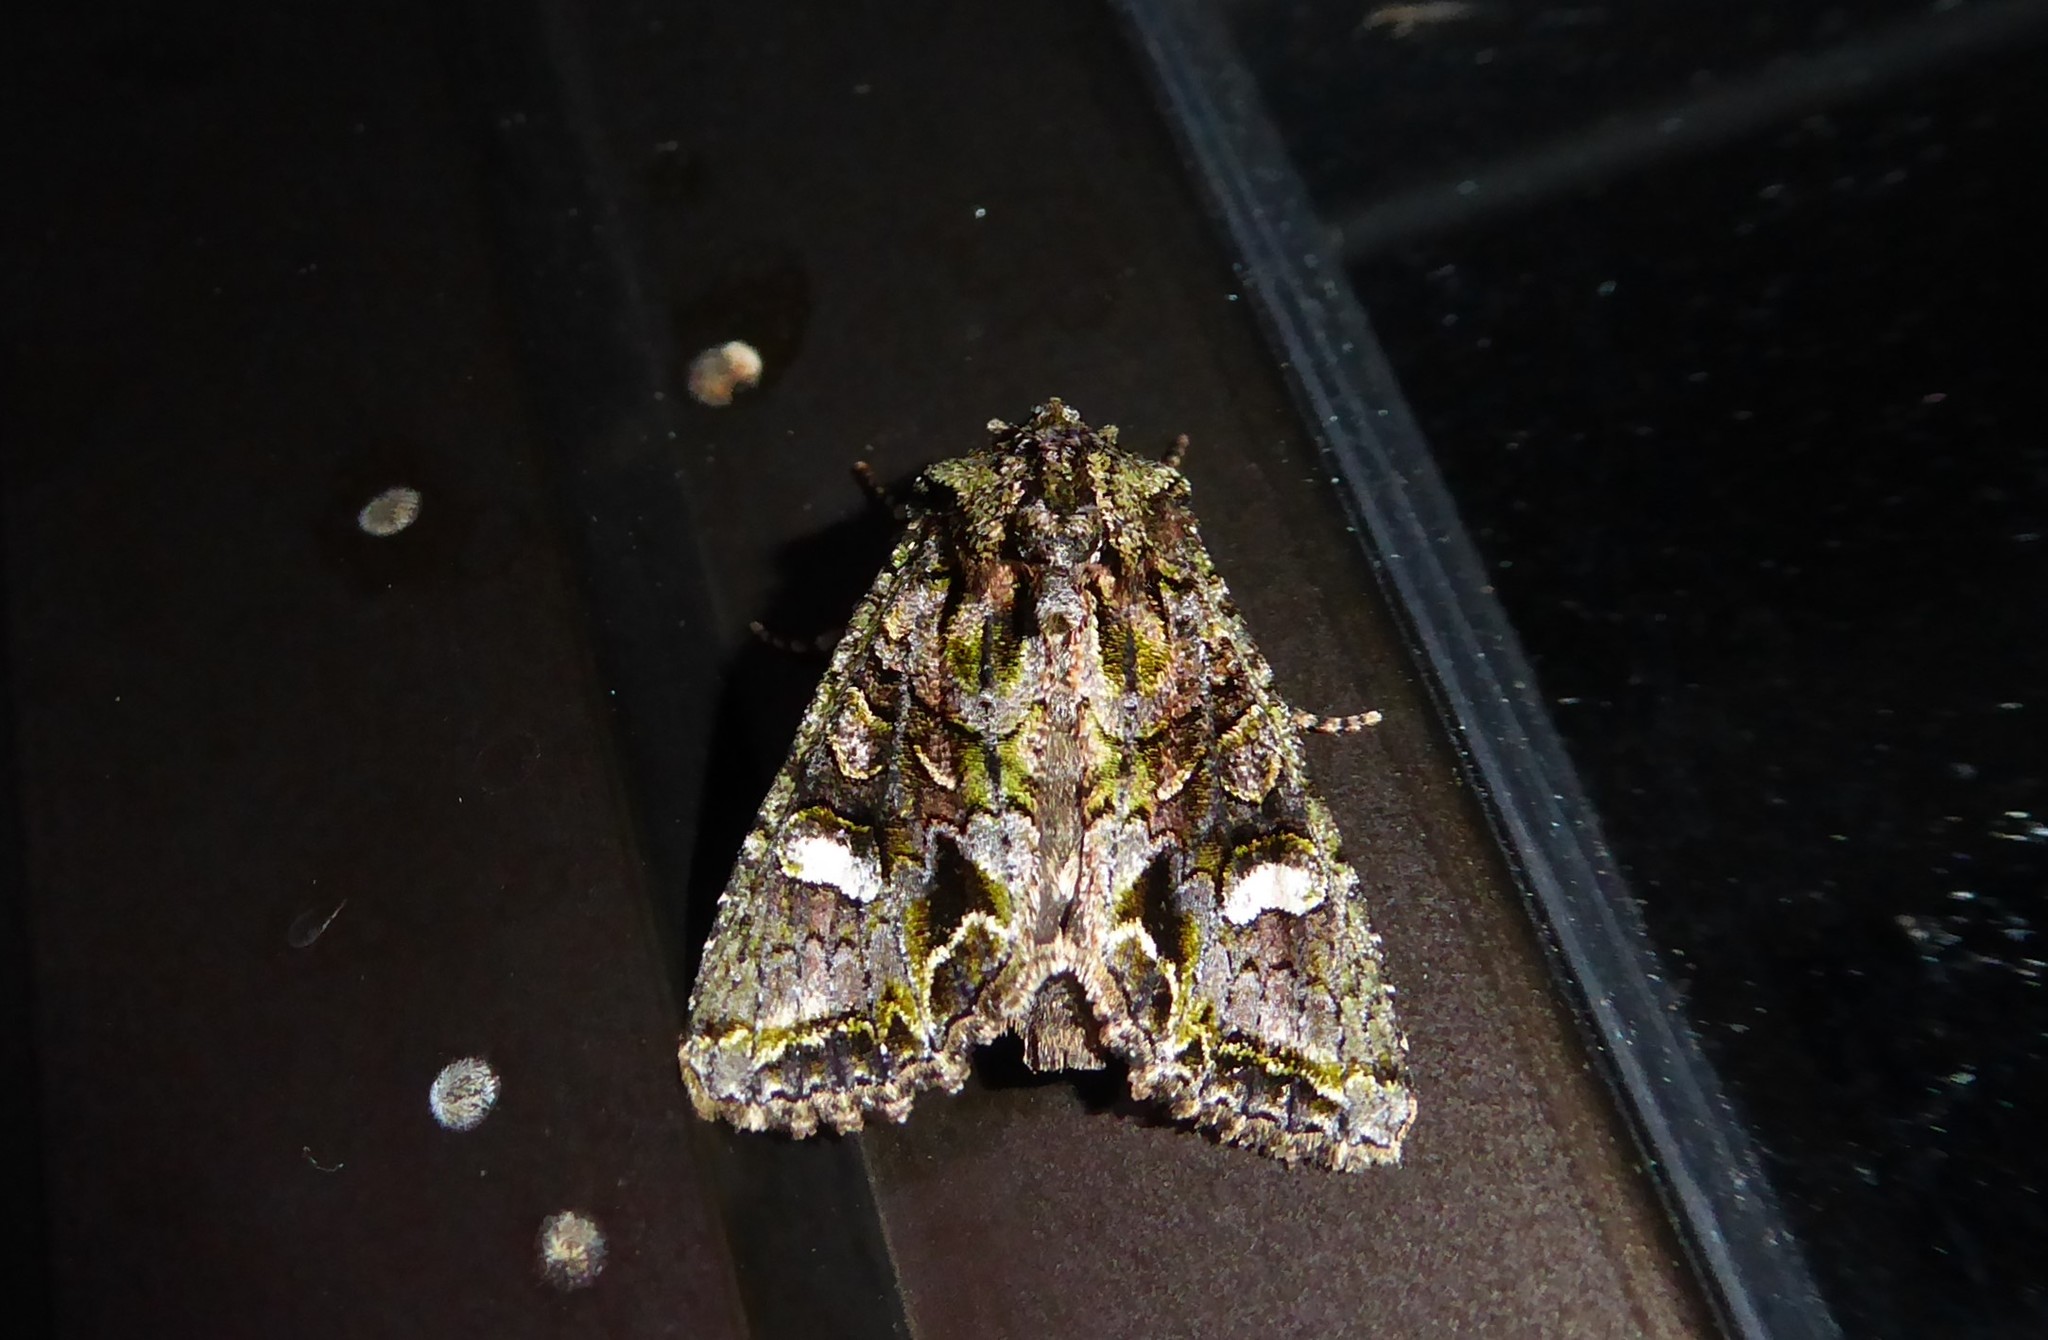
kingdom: Animalia
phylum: Arthropoda
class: Insecta
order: Lepidoptera
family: Noctuidae
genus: Ichneutica
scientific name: Ichneutica insignis
